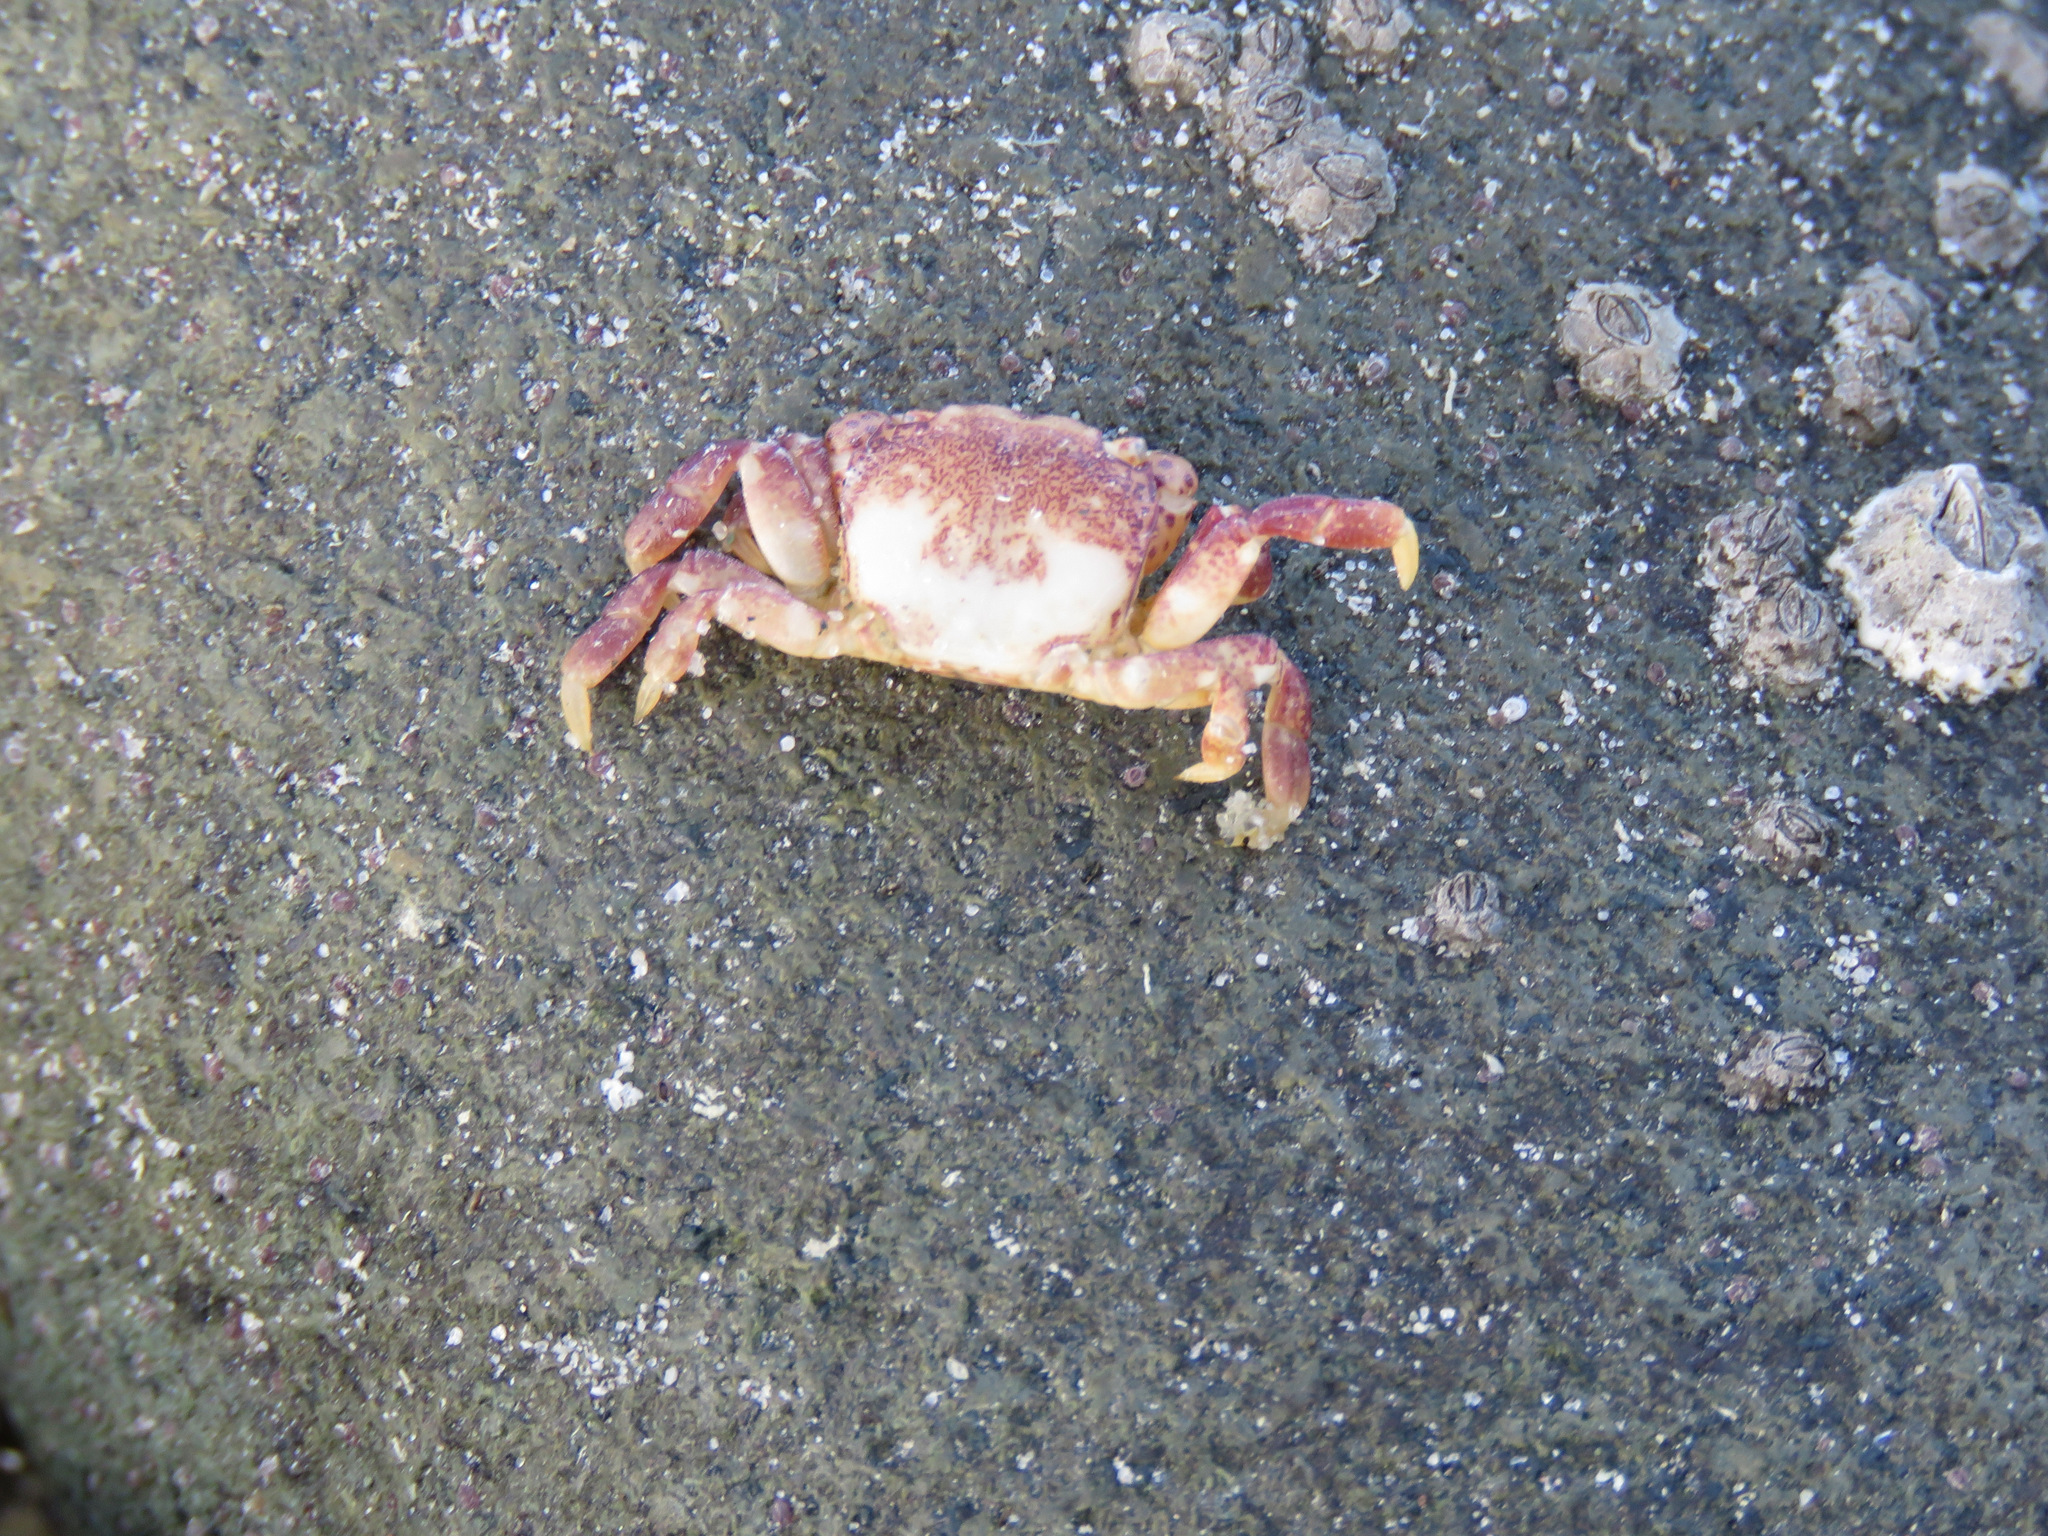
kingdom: Animalia
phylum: Arthropoda
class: Malacostraca
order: Decapoda
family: Varunidae
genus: Hemigrapsus
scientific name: Hemigrapsus nudus
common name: Purple shore crab
